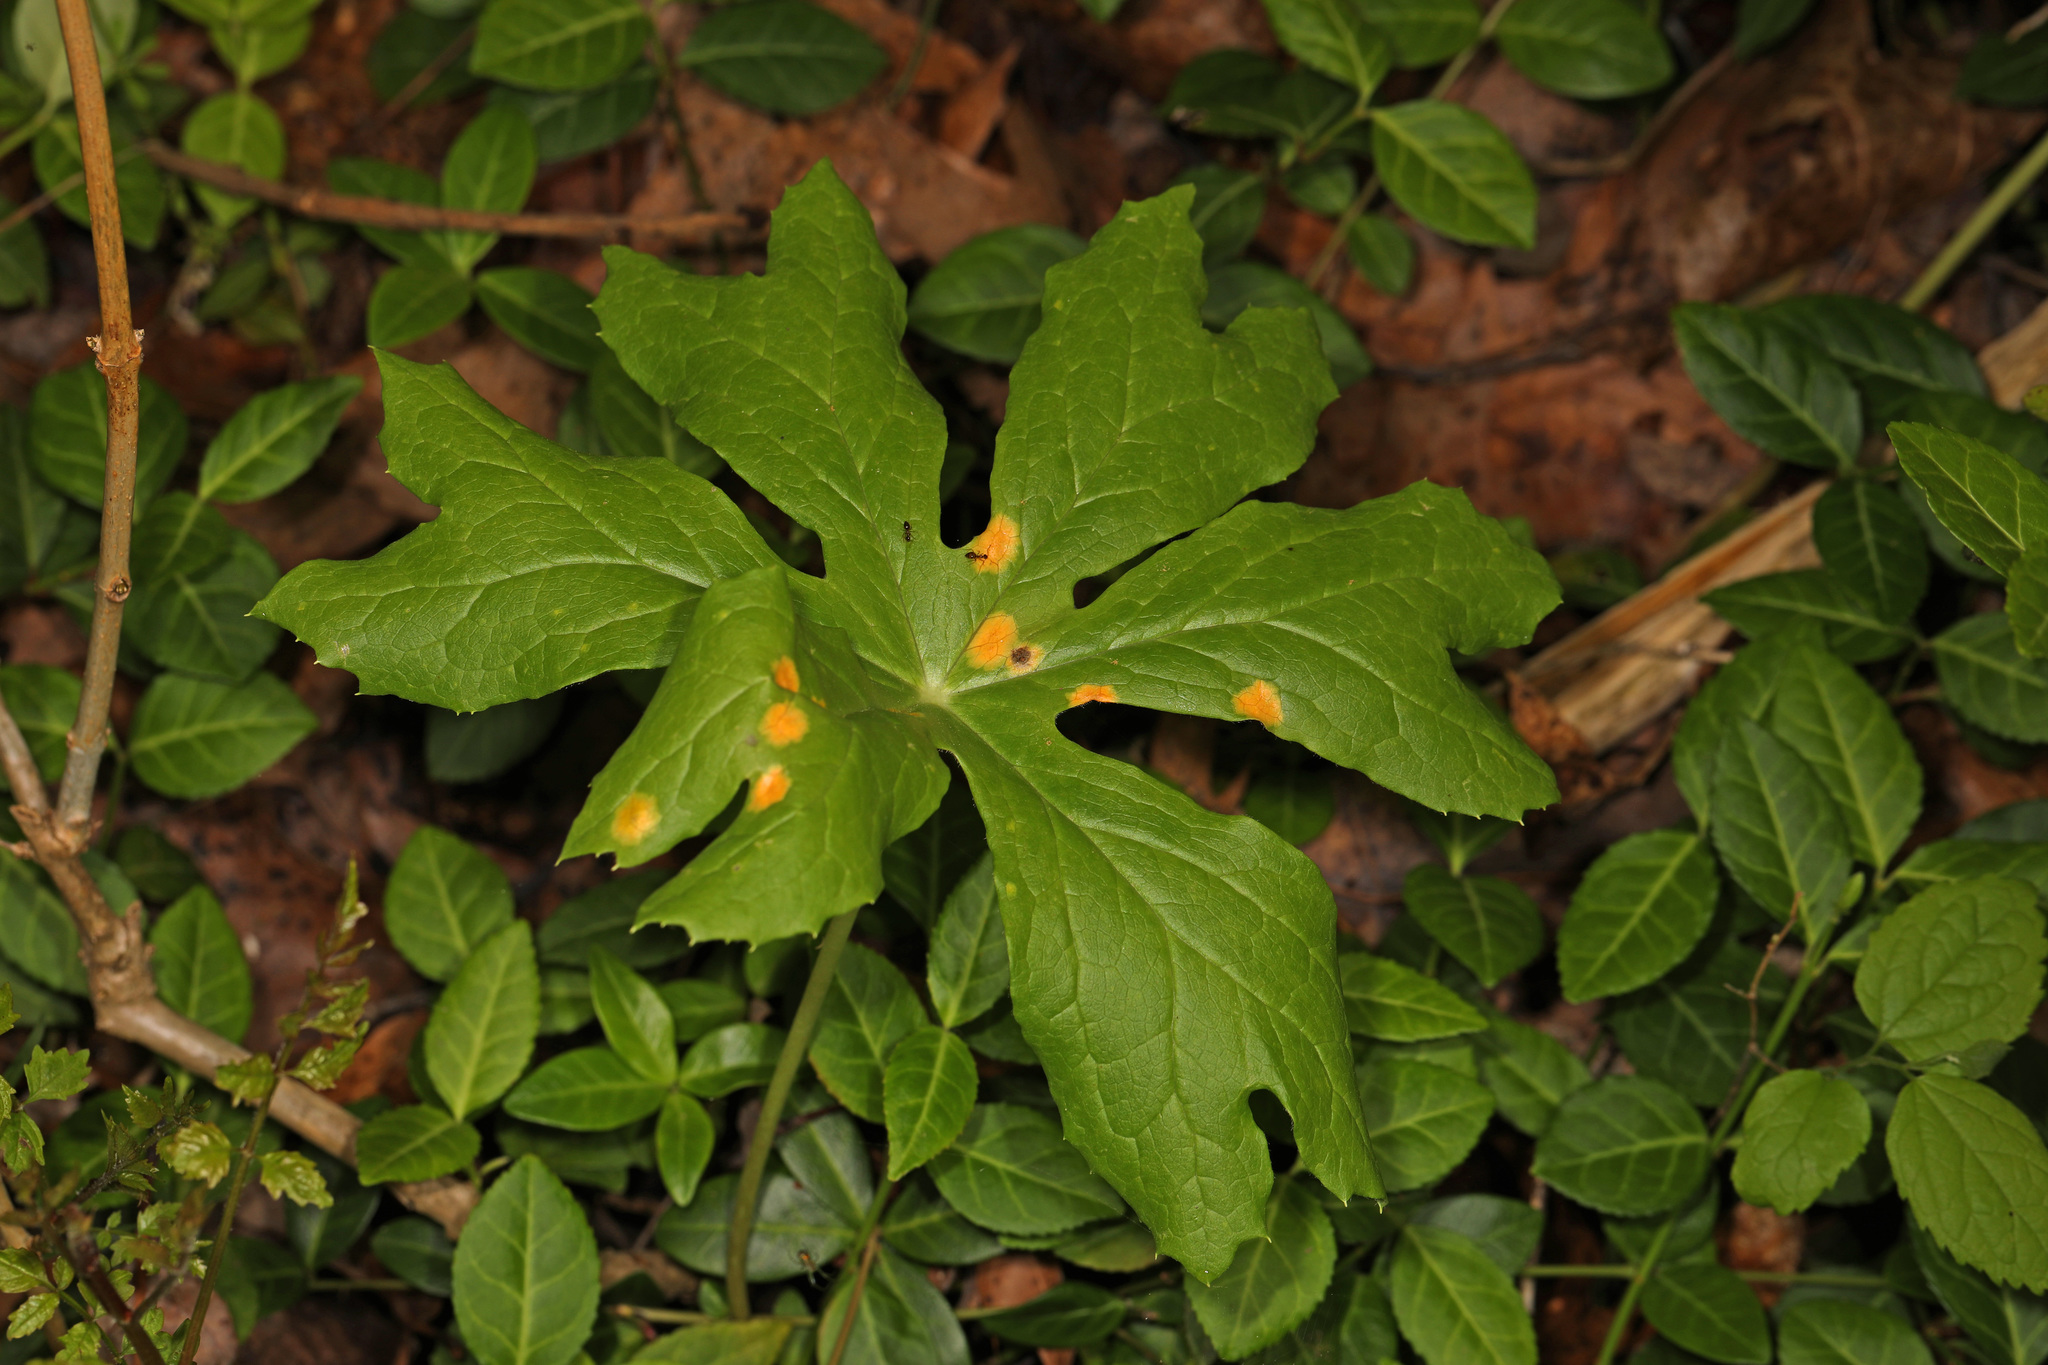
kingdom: Fungi
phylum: Basidiomycota
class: Pucciniomycetes
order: Pucciniales
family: Pucciniaceae
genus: Puccinia
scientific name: Puccinia podophylli
